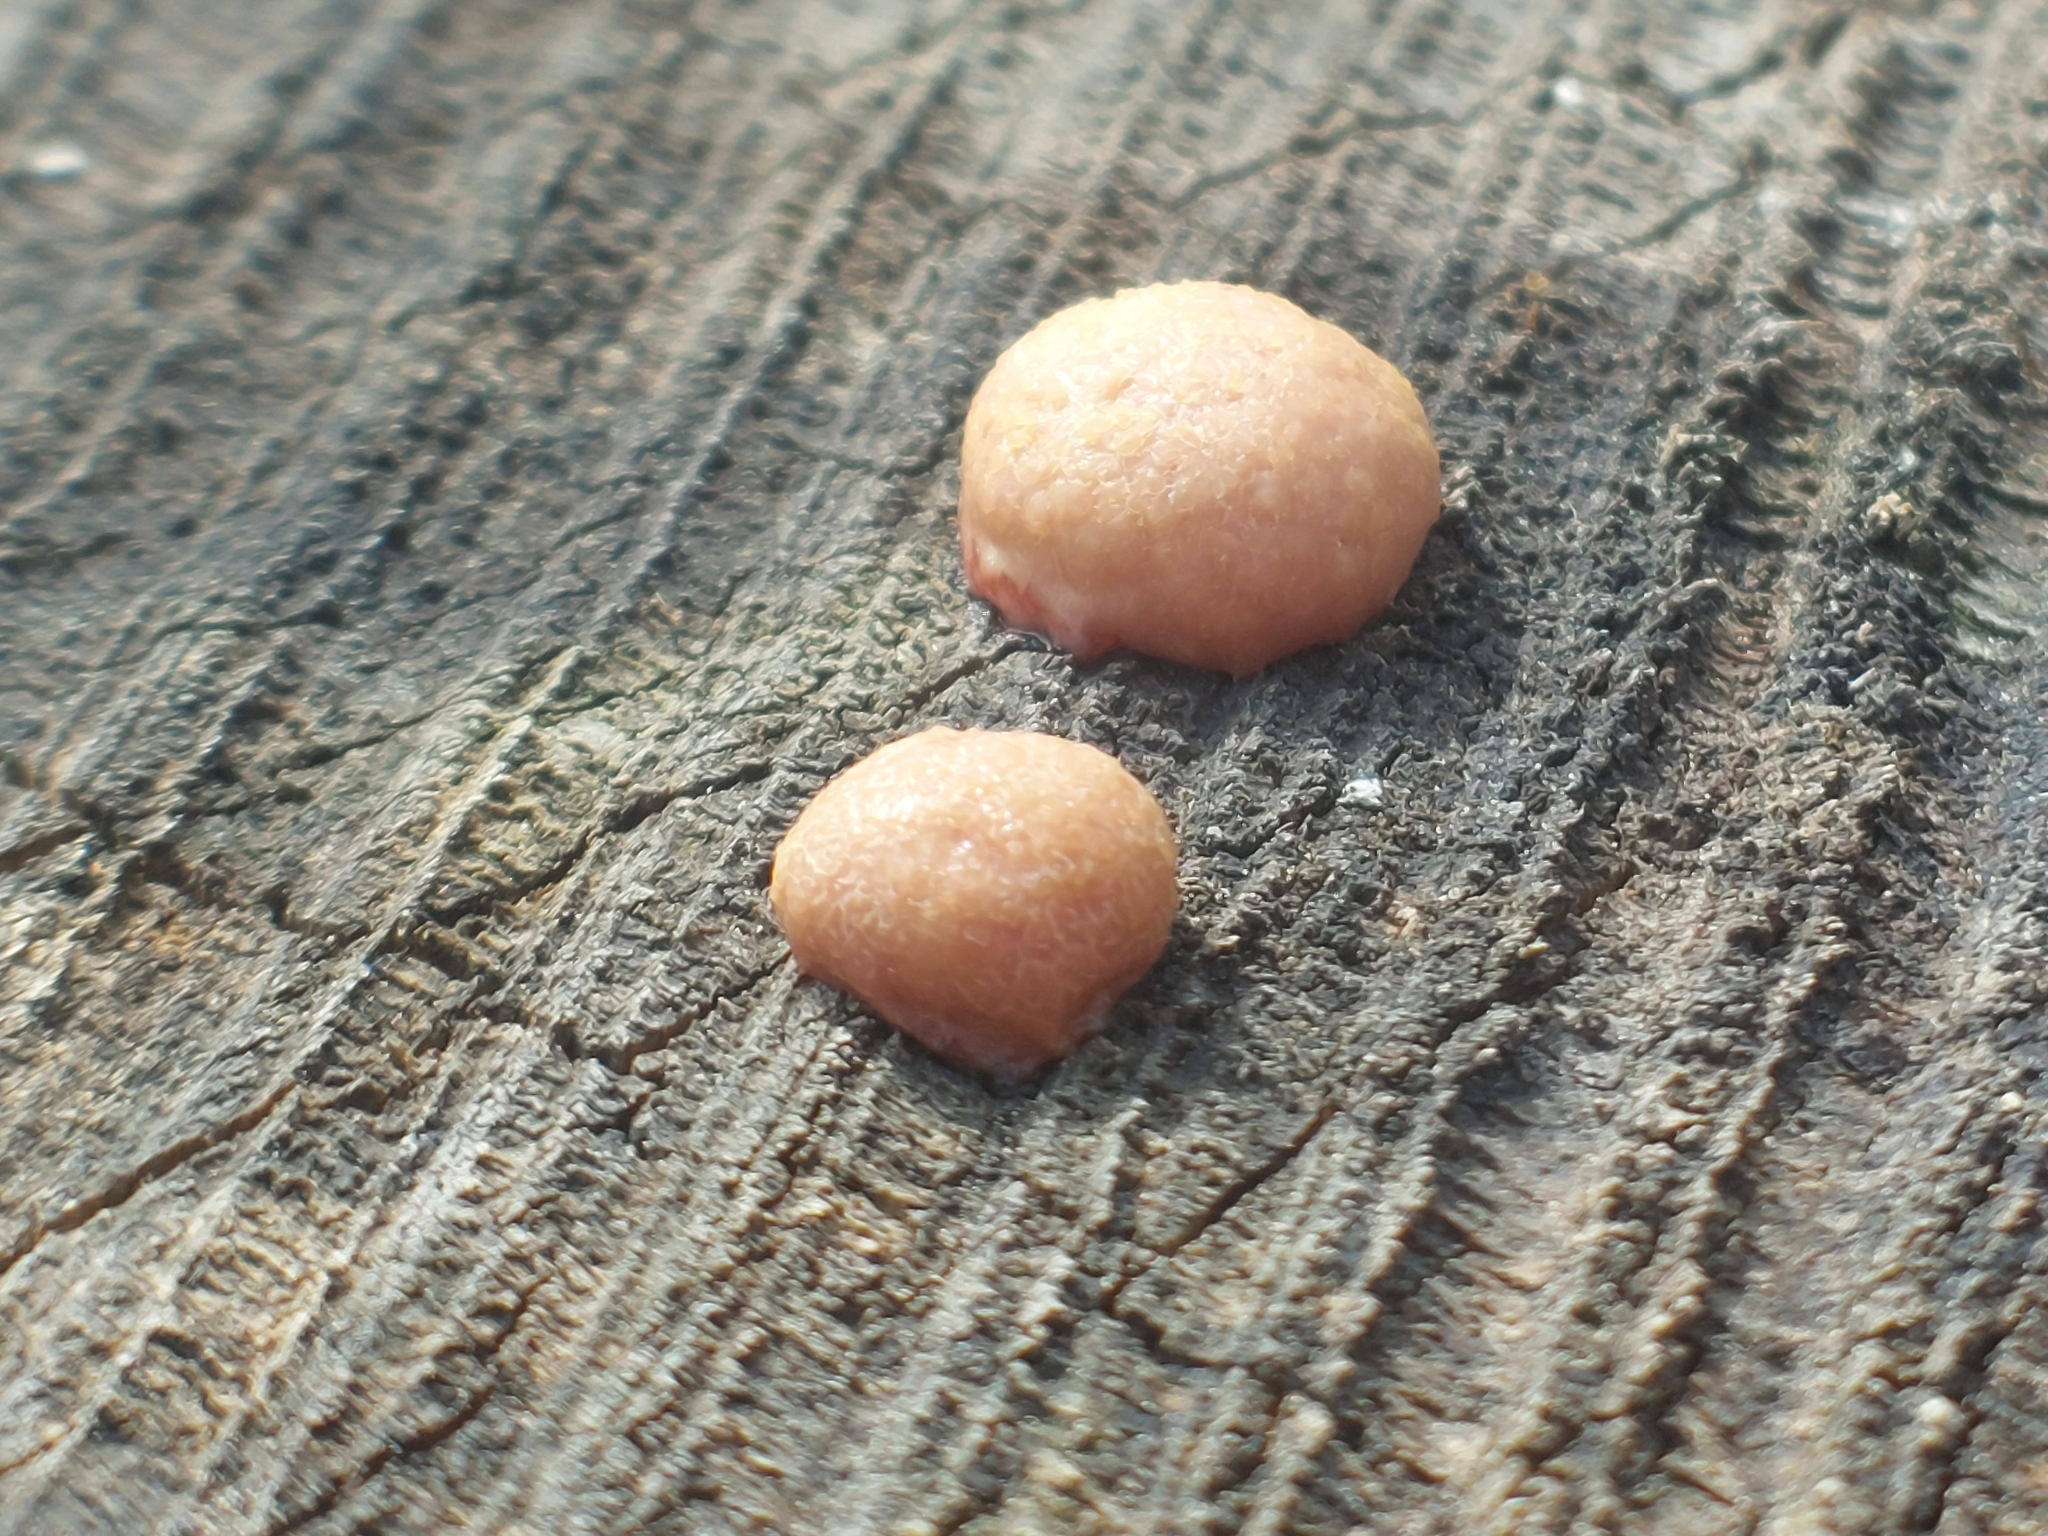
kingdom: Protozoa
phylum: Mycetozoa
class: Myxomycetes
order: Cribrariales
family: Tubiferaceae
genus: Lycogala
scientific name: Lycogala epidendrum
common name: Wolf's milk
